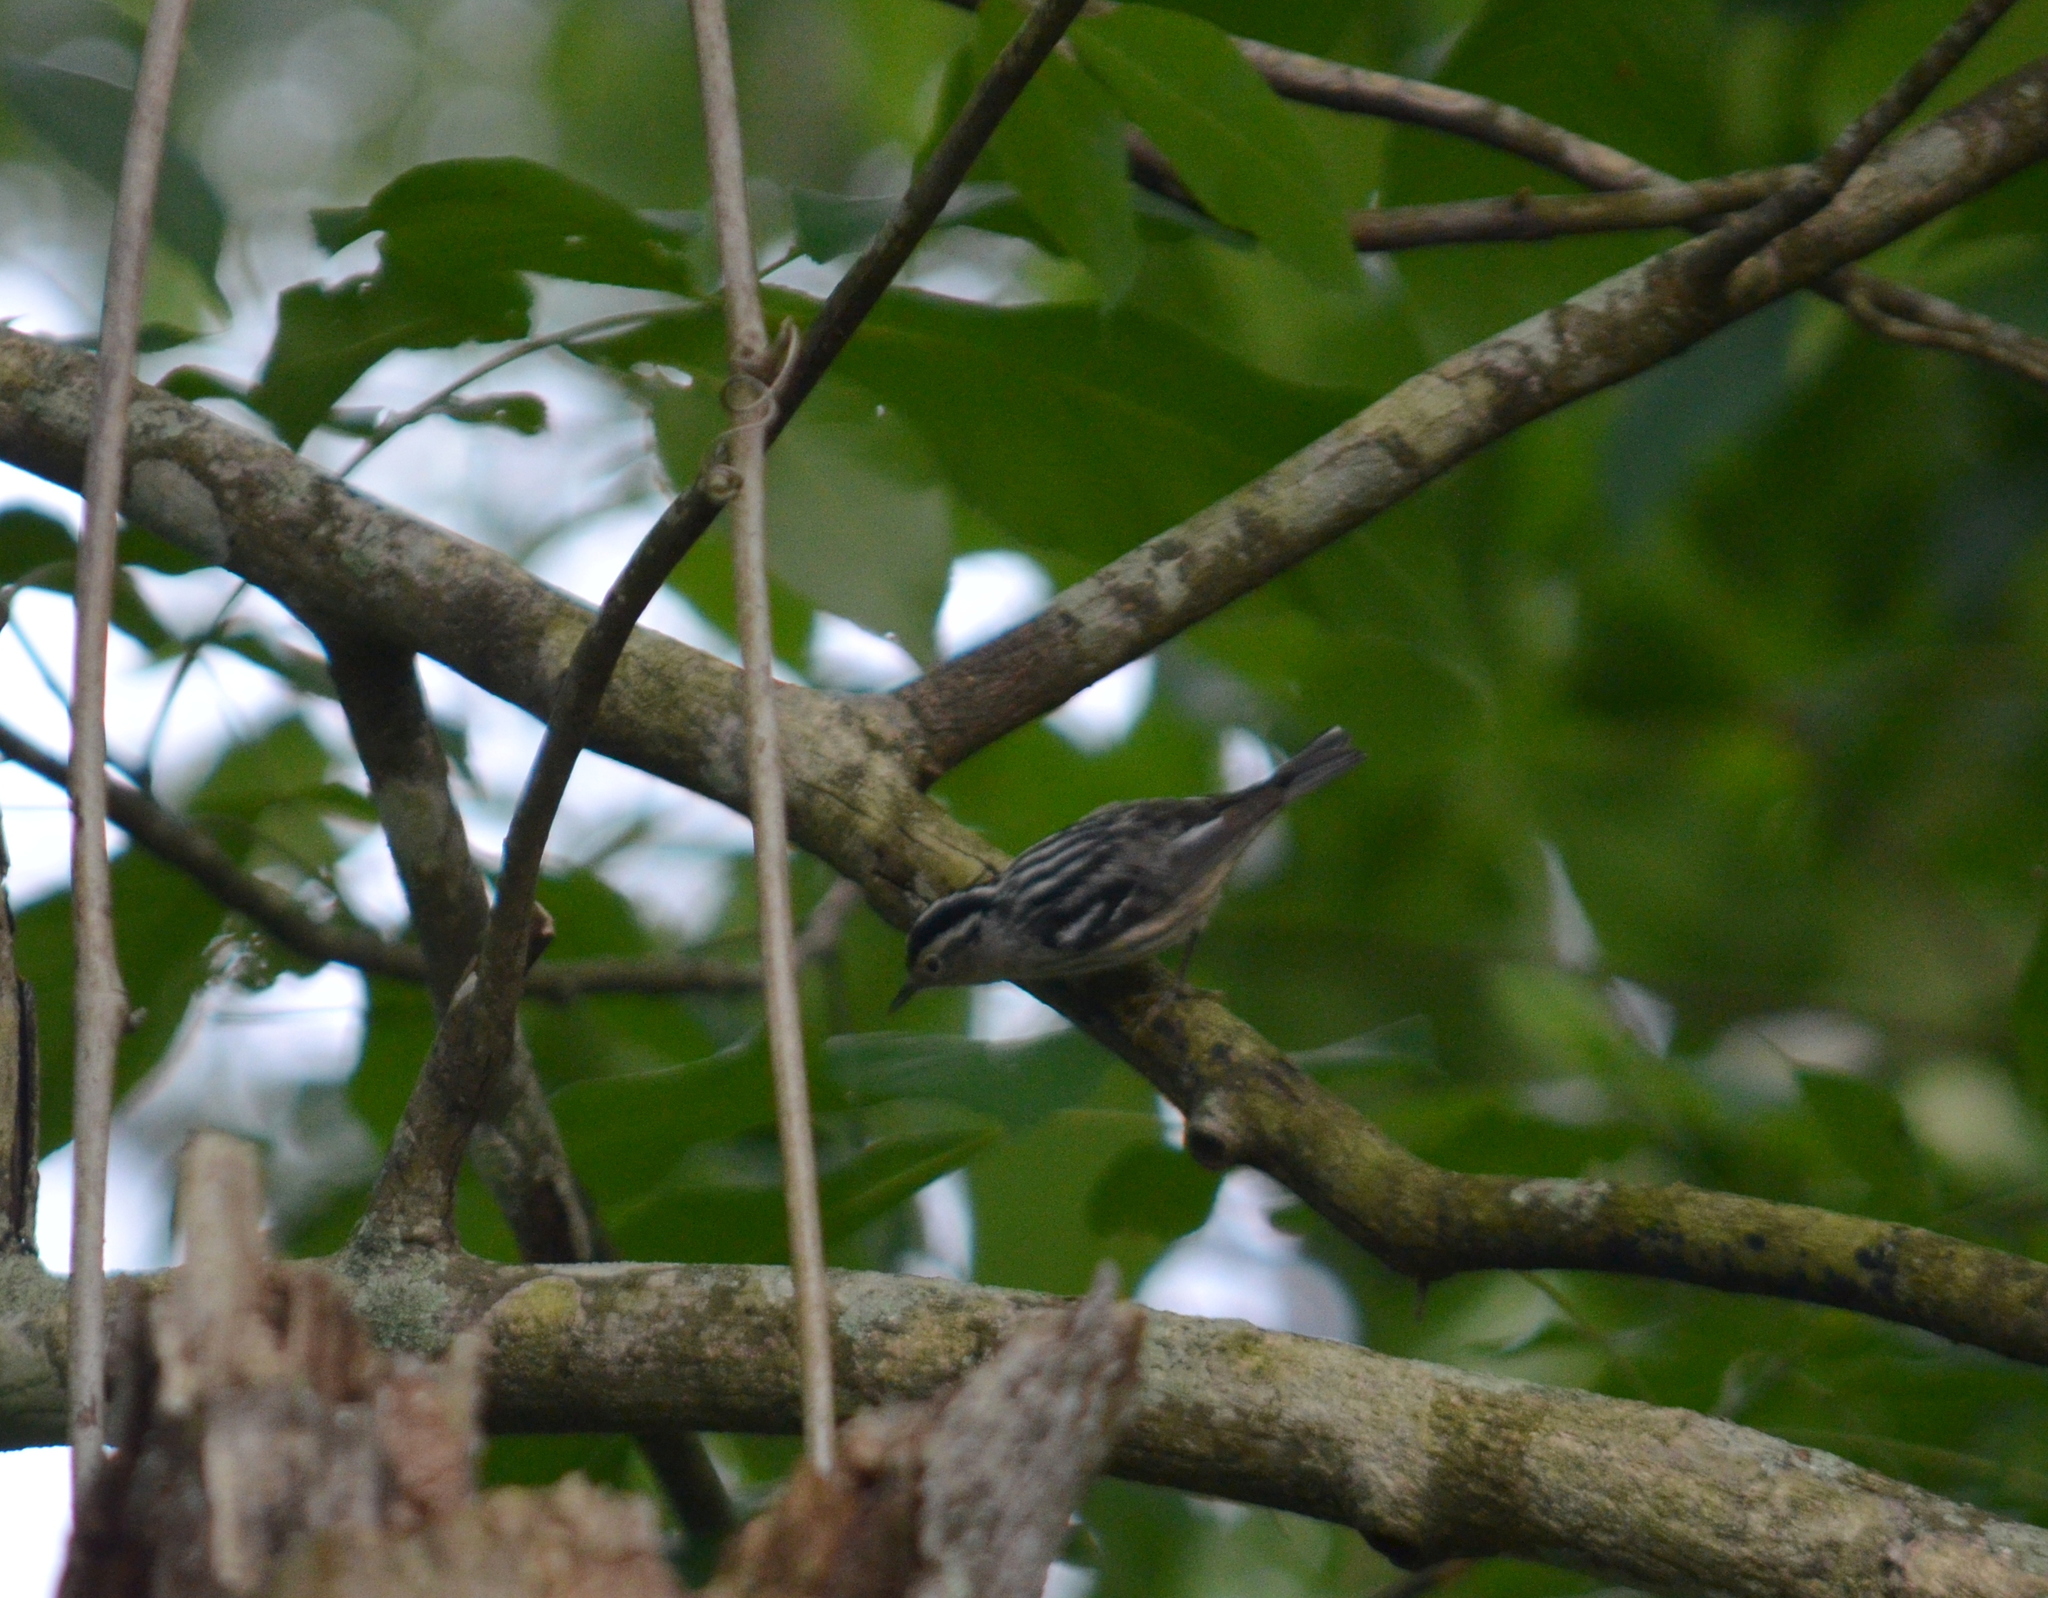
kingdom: Animalia
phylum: Chordata
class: Aves
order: Passeriformes
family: Parulidae
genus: Mniotilta
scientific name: Mniotilta varia
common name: Black-and-white warbler
